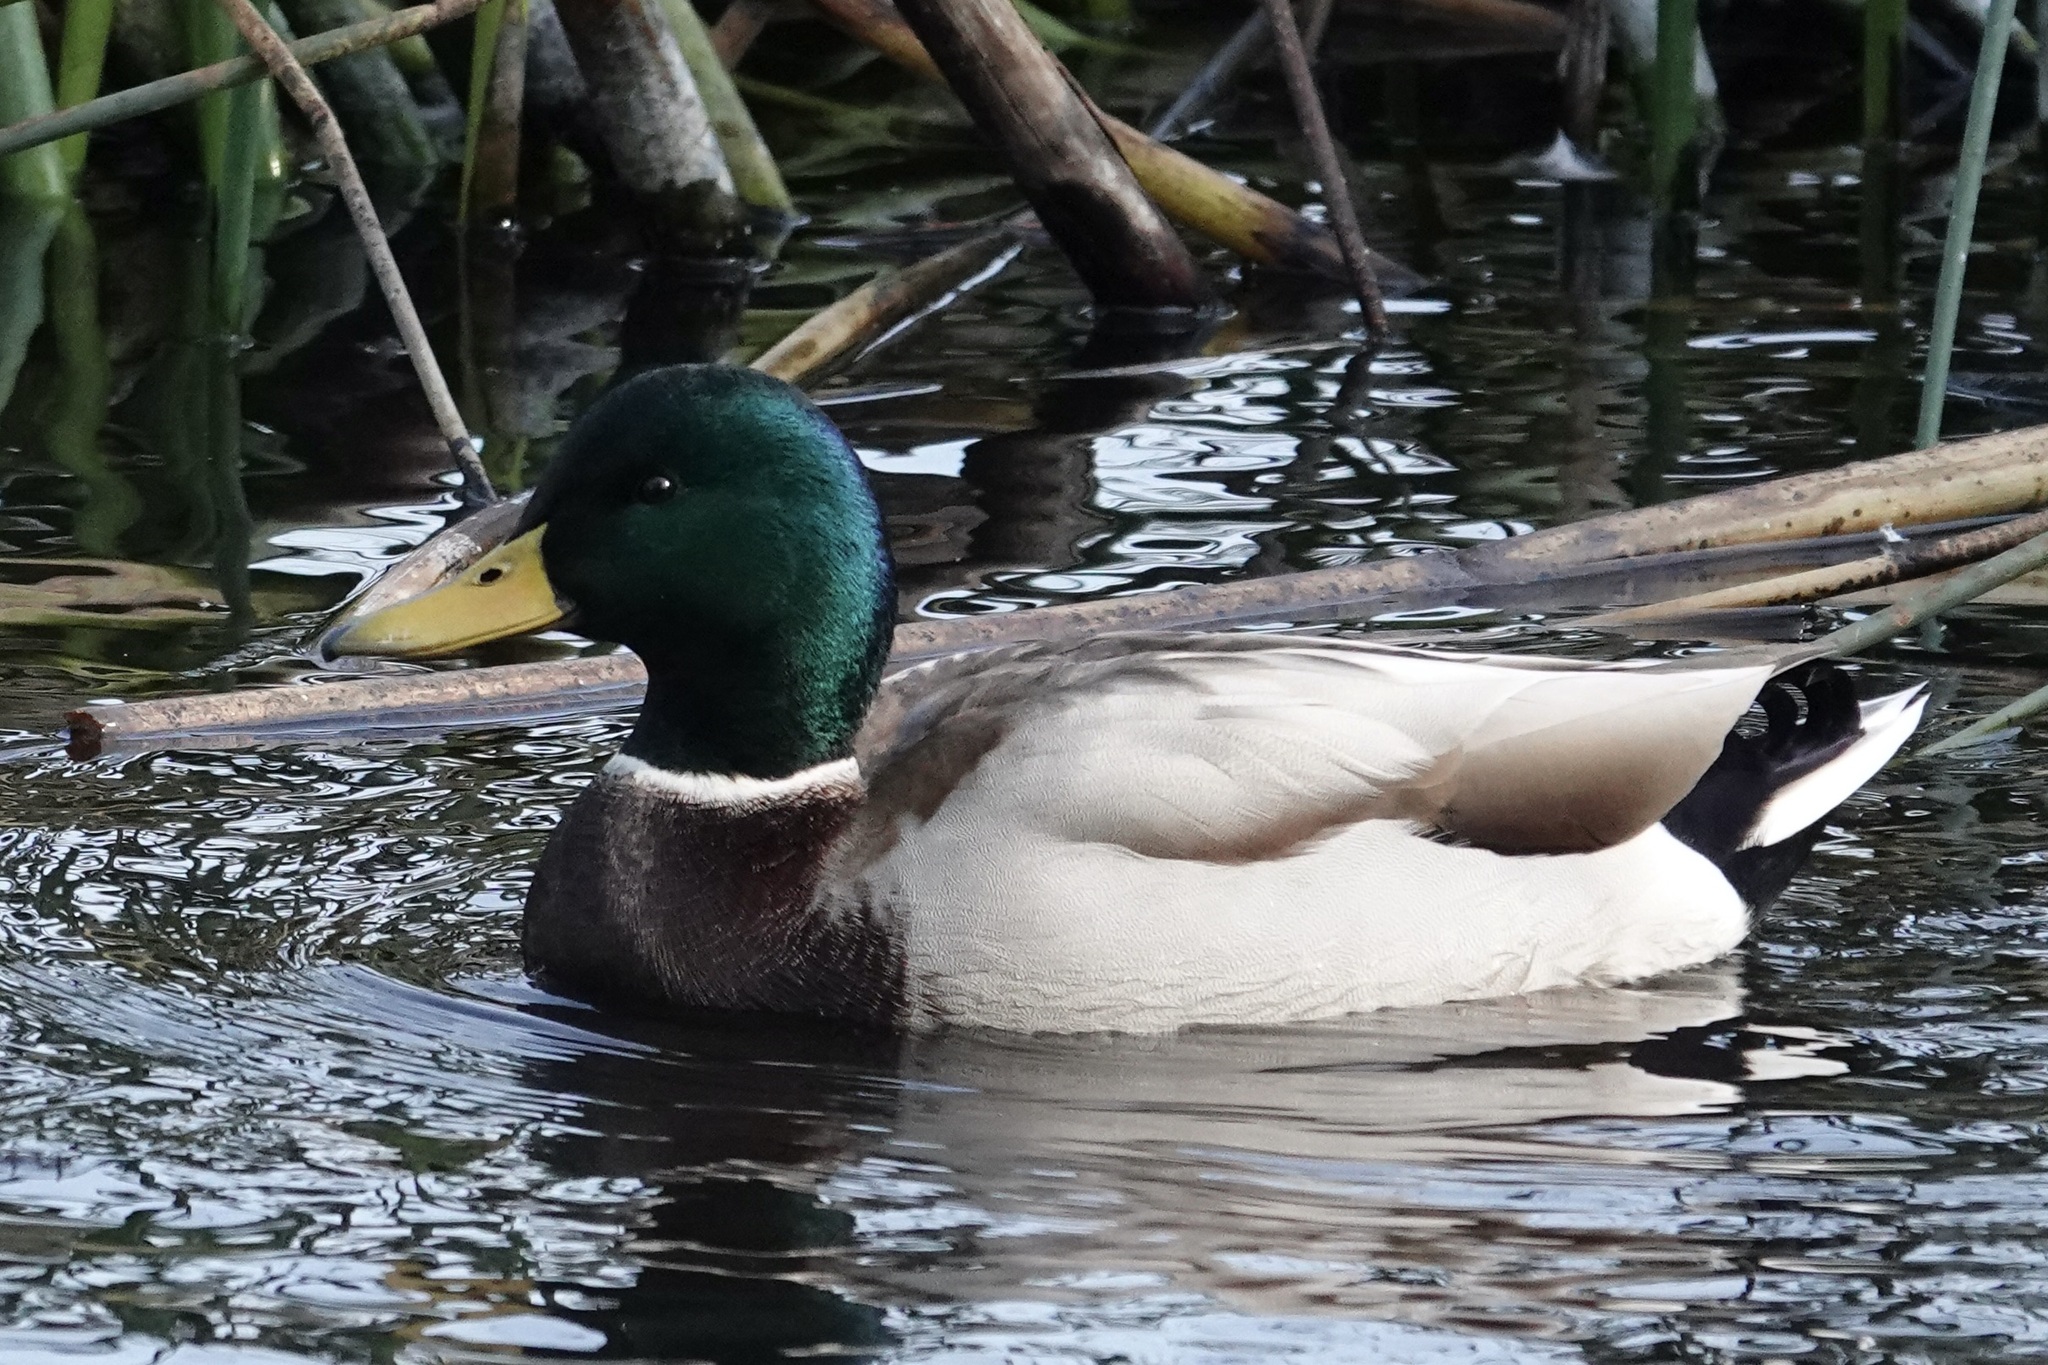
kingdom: Animalia
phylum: Chordata
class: Aves
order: Anseriformes
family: Anatidae
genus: Anas
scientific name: Anas platyrhynchos
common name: Mallard
